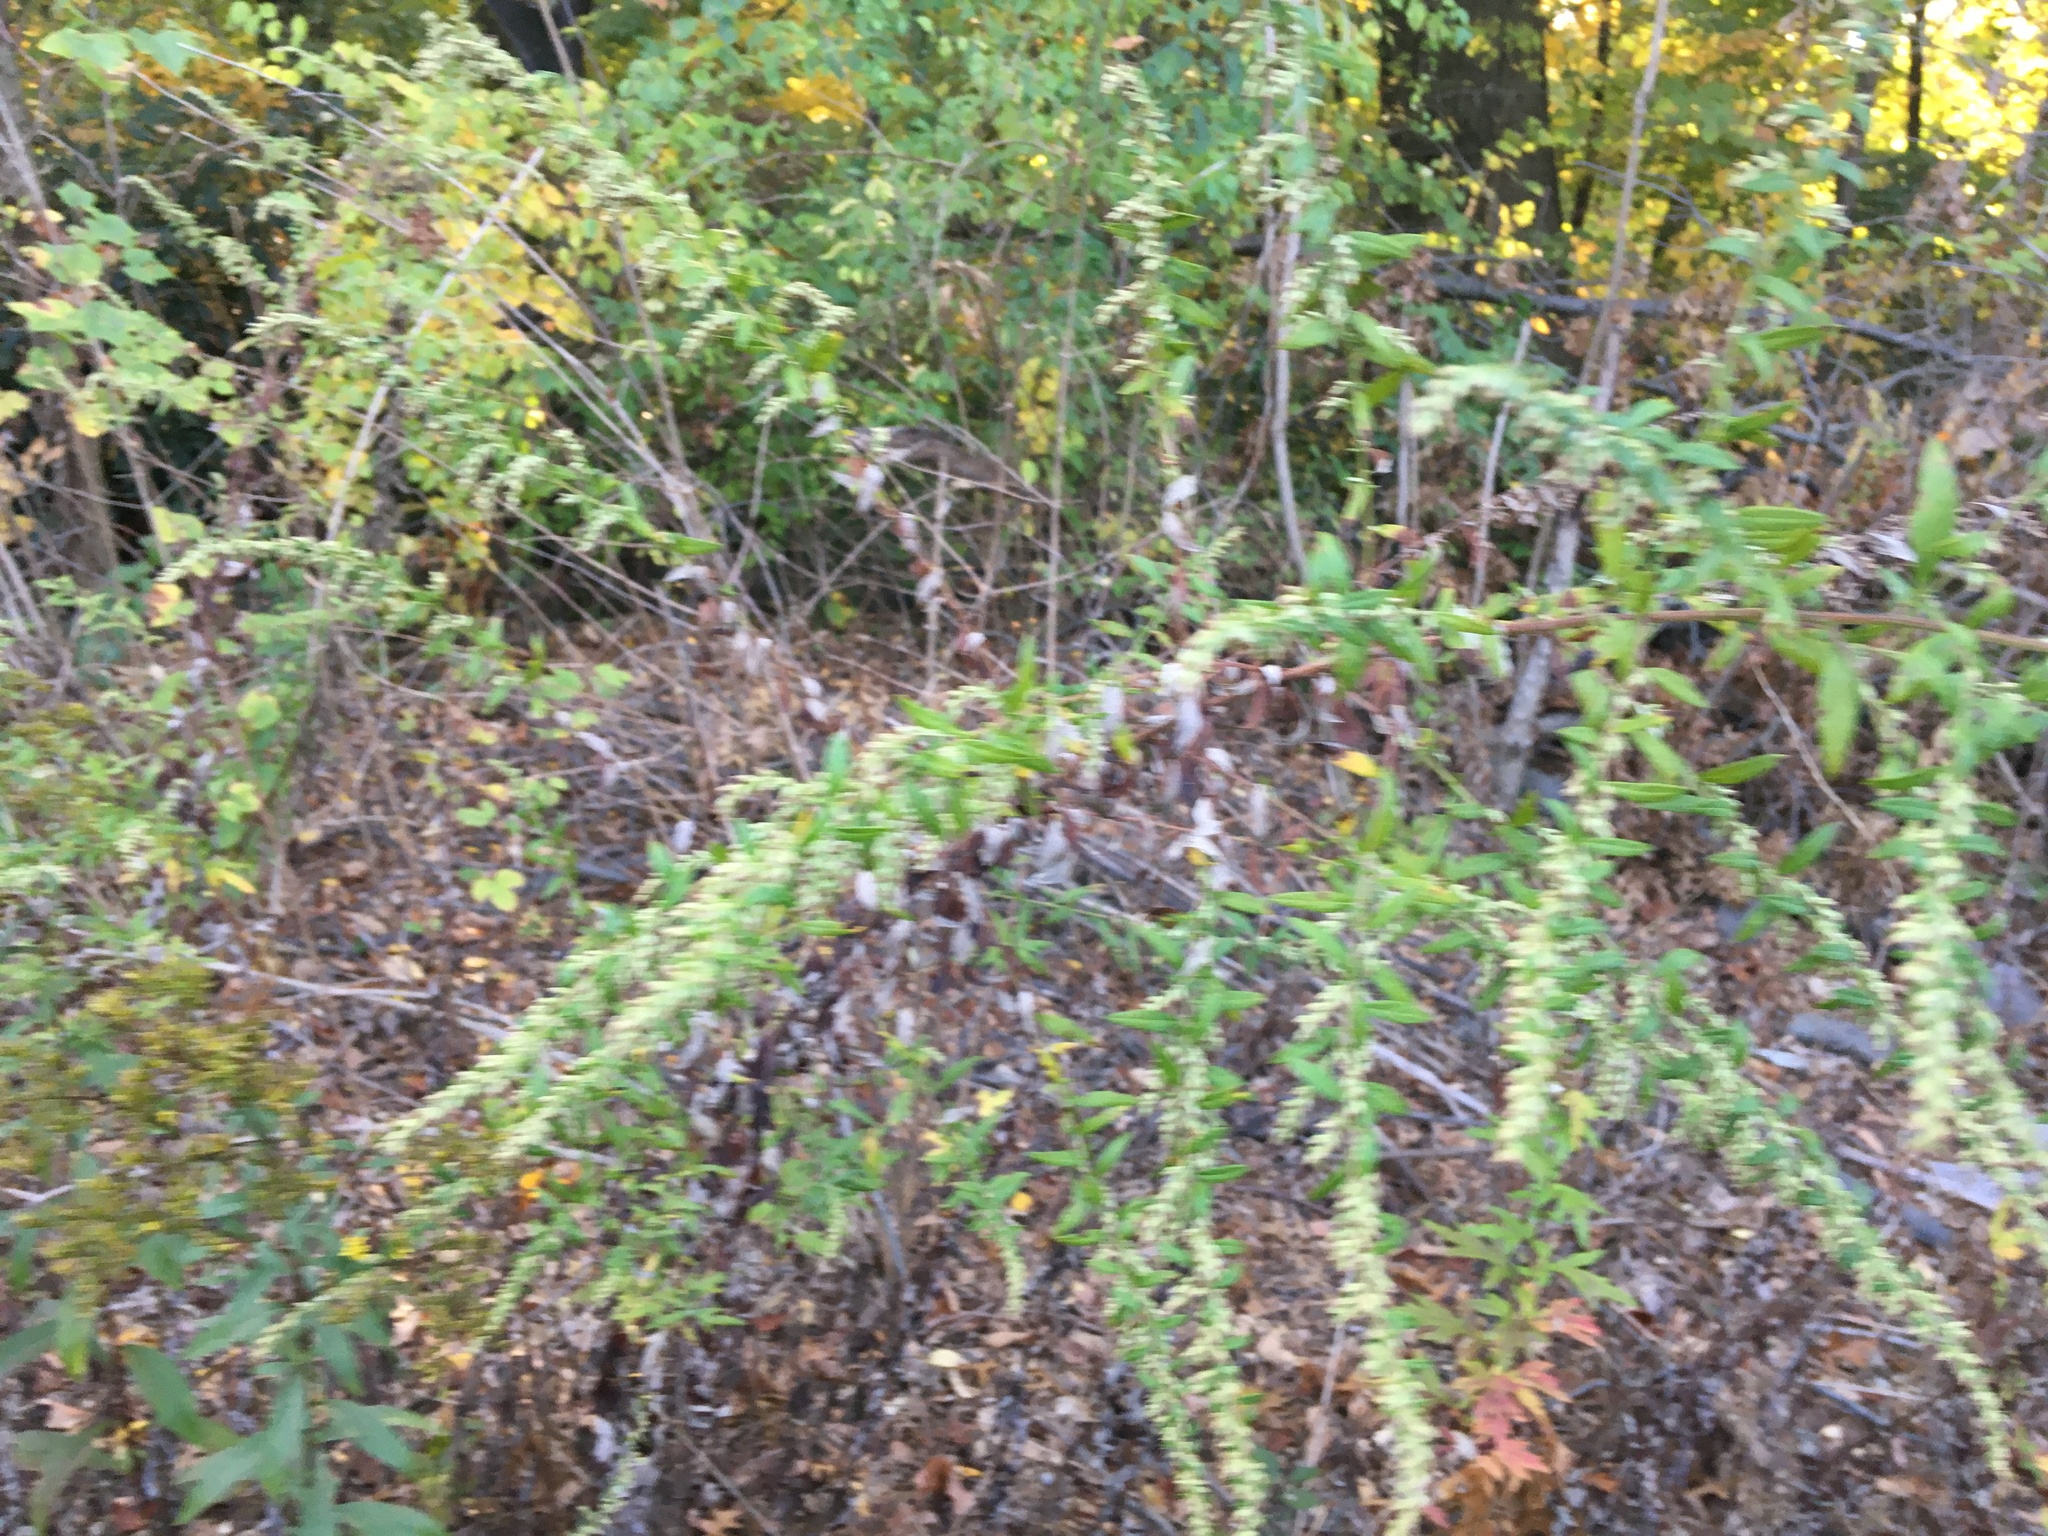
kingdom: Plantae
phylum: Tracheophyta
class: Magnoliopsida
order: Asterales
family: Asteraceae
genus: Artemisia
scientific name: Artemisia vulgaris
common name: Mugwort
